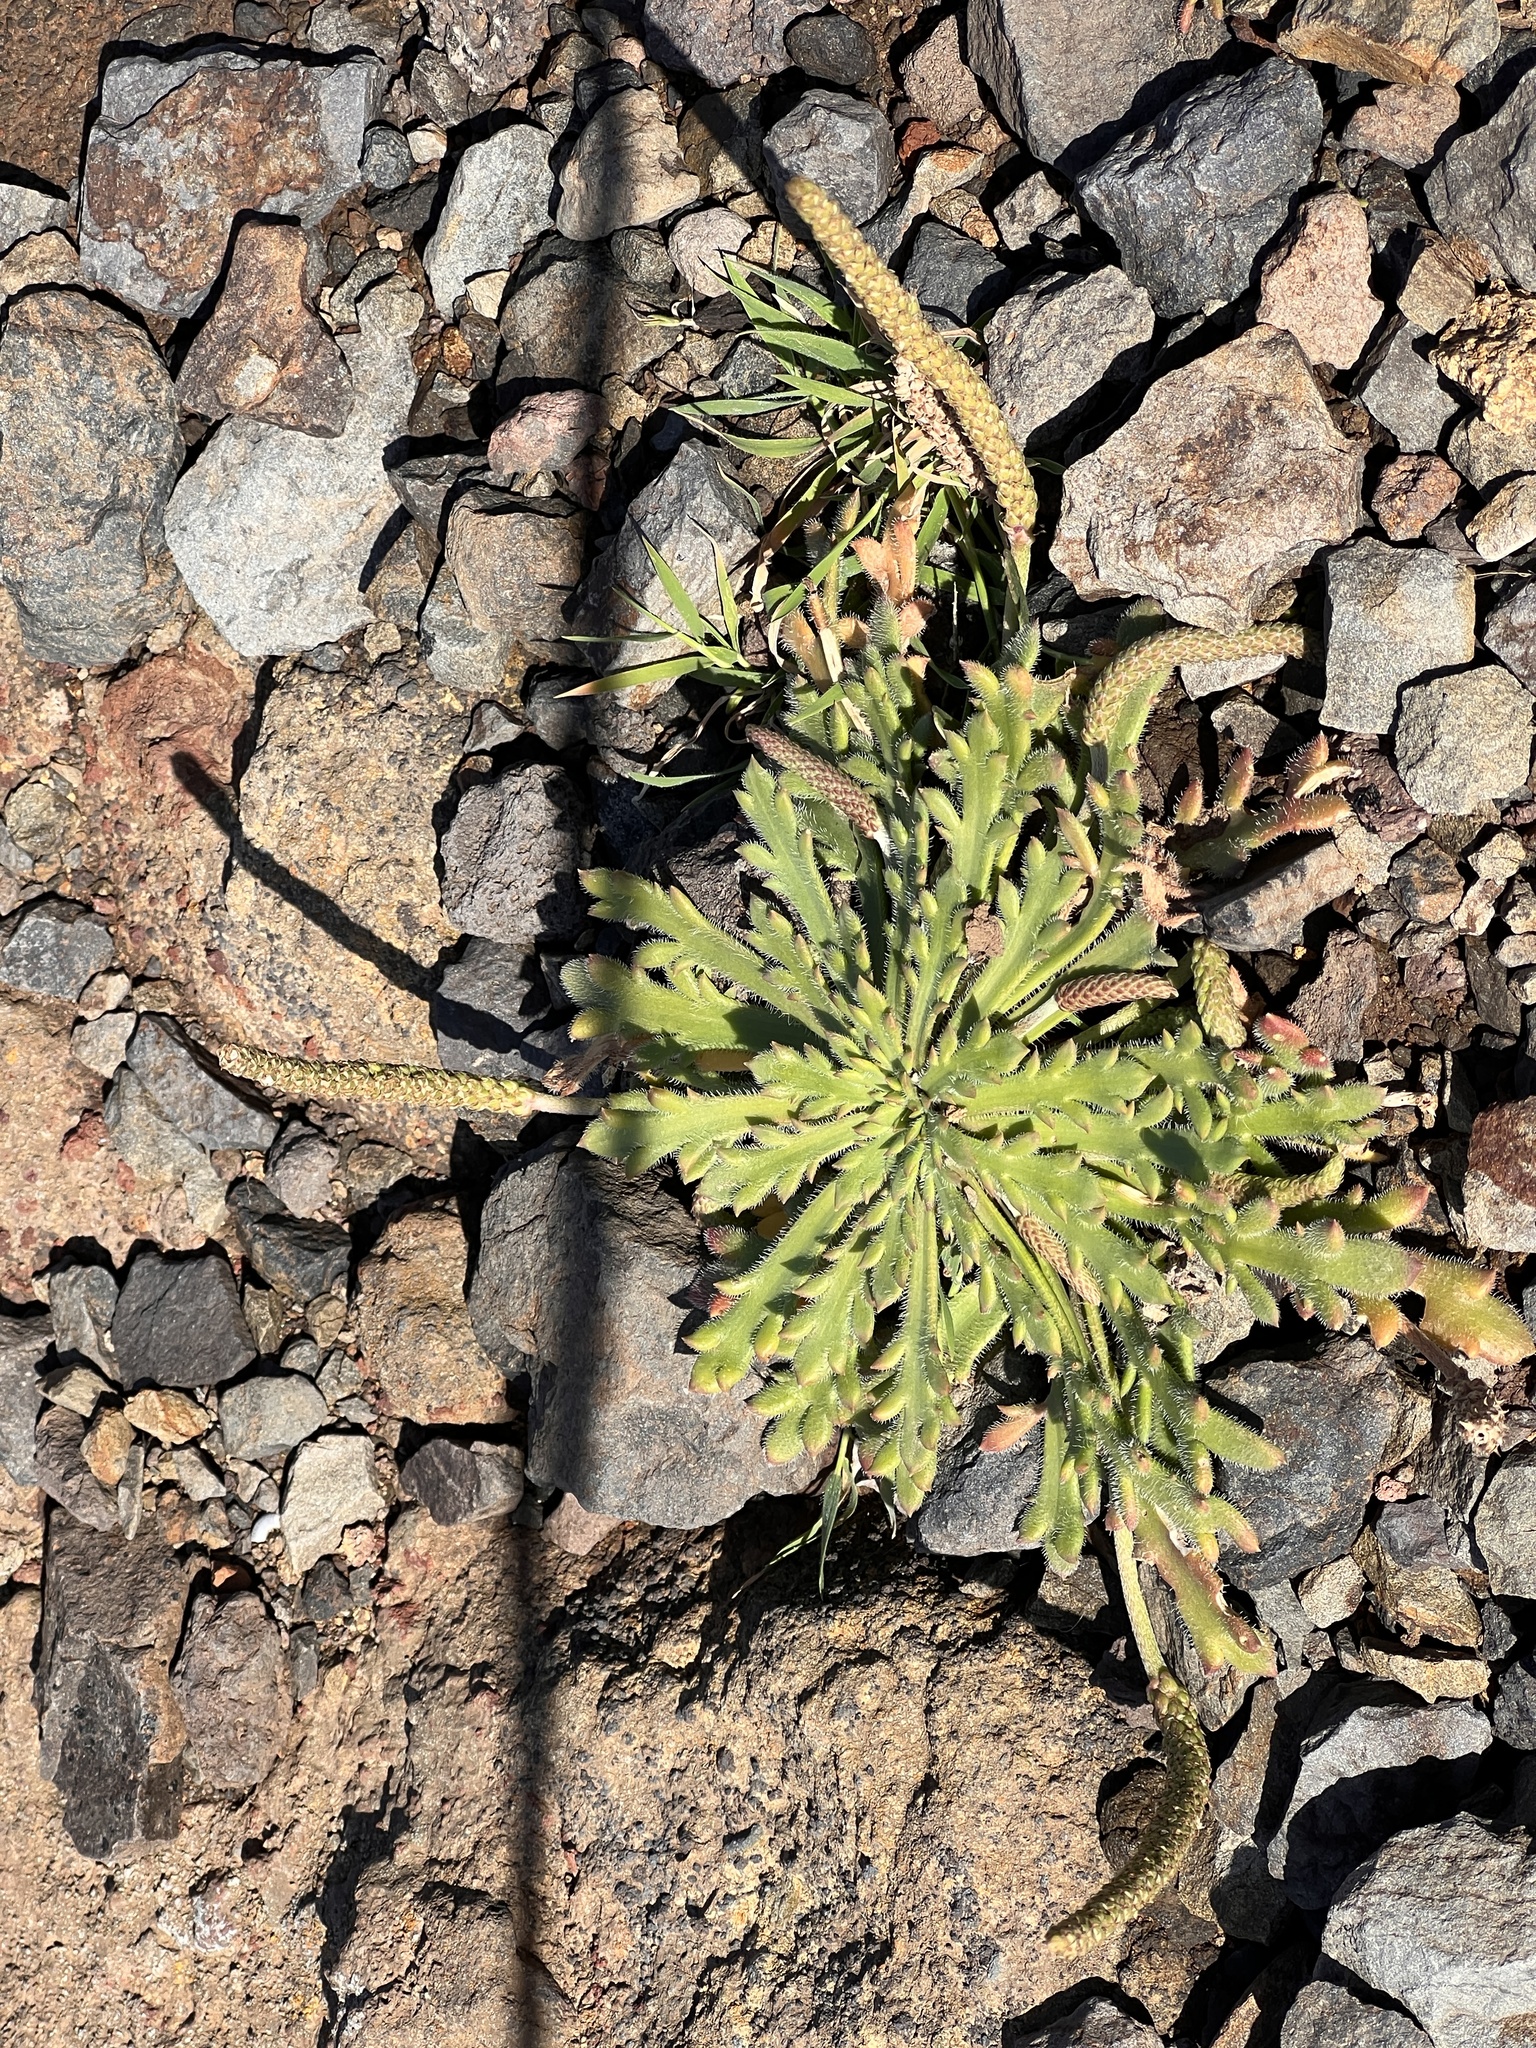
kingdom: Plantae
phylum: Tracheophyta
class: Magnoliopsida
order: Lamiales
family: Plantaginaceae
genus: Plantago
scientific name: Plantago coronopus
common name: Buck's-horn plantain
